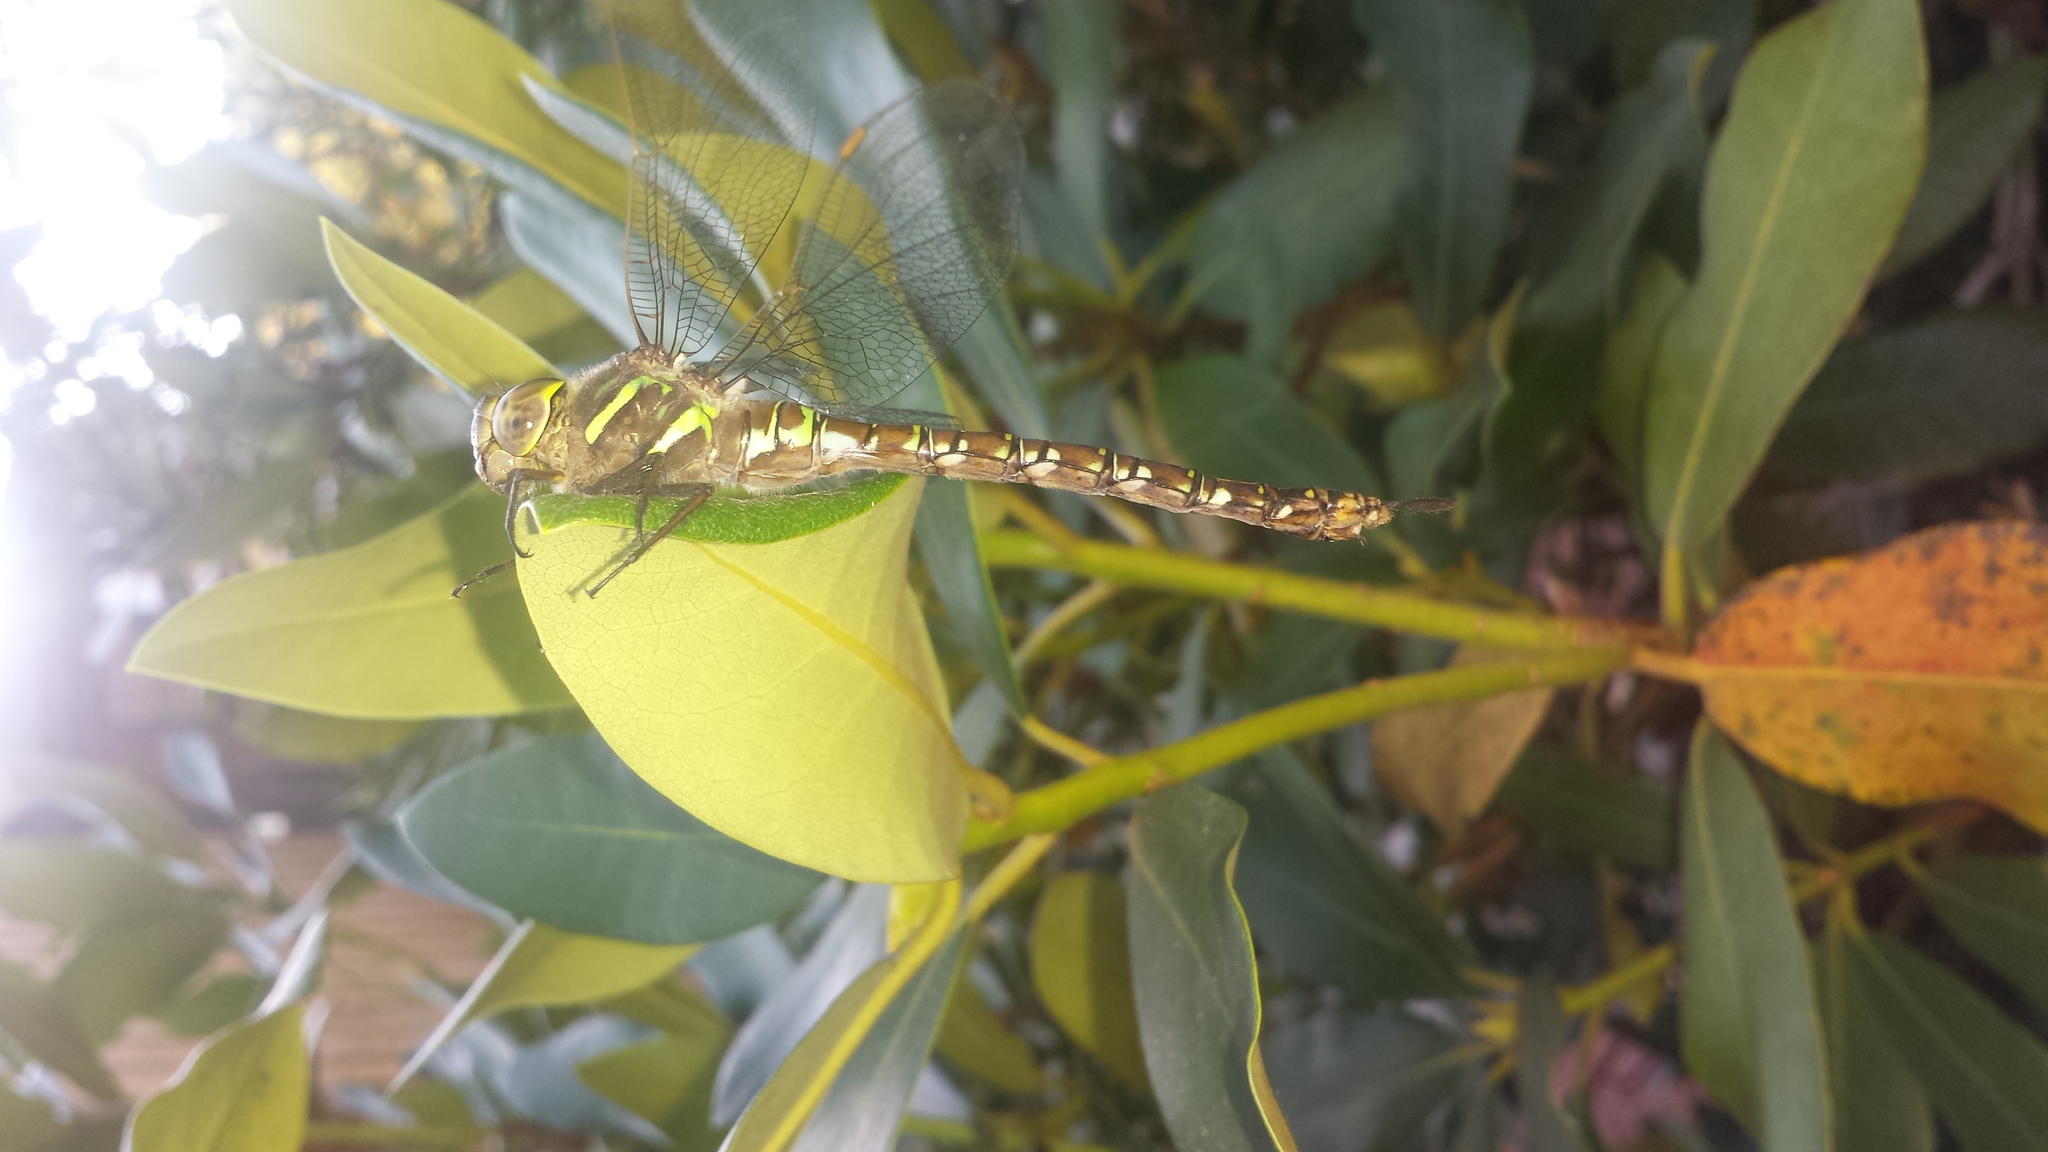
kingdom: Animalia
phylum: Arthropoda
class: Insecta
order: Odonata
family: Aeshnidae
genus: Aeshna
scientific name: Aeshna umbrosa
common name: Shadow darner
